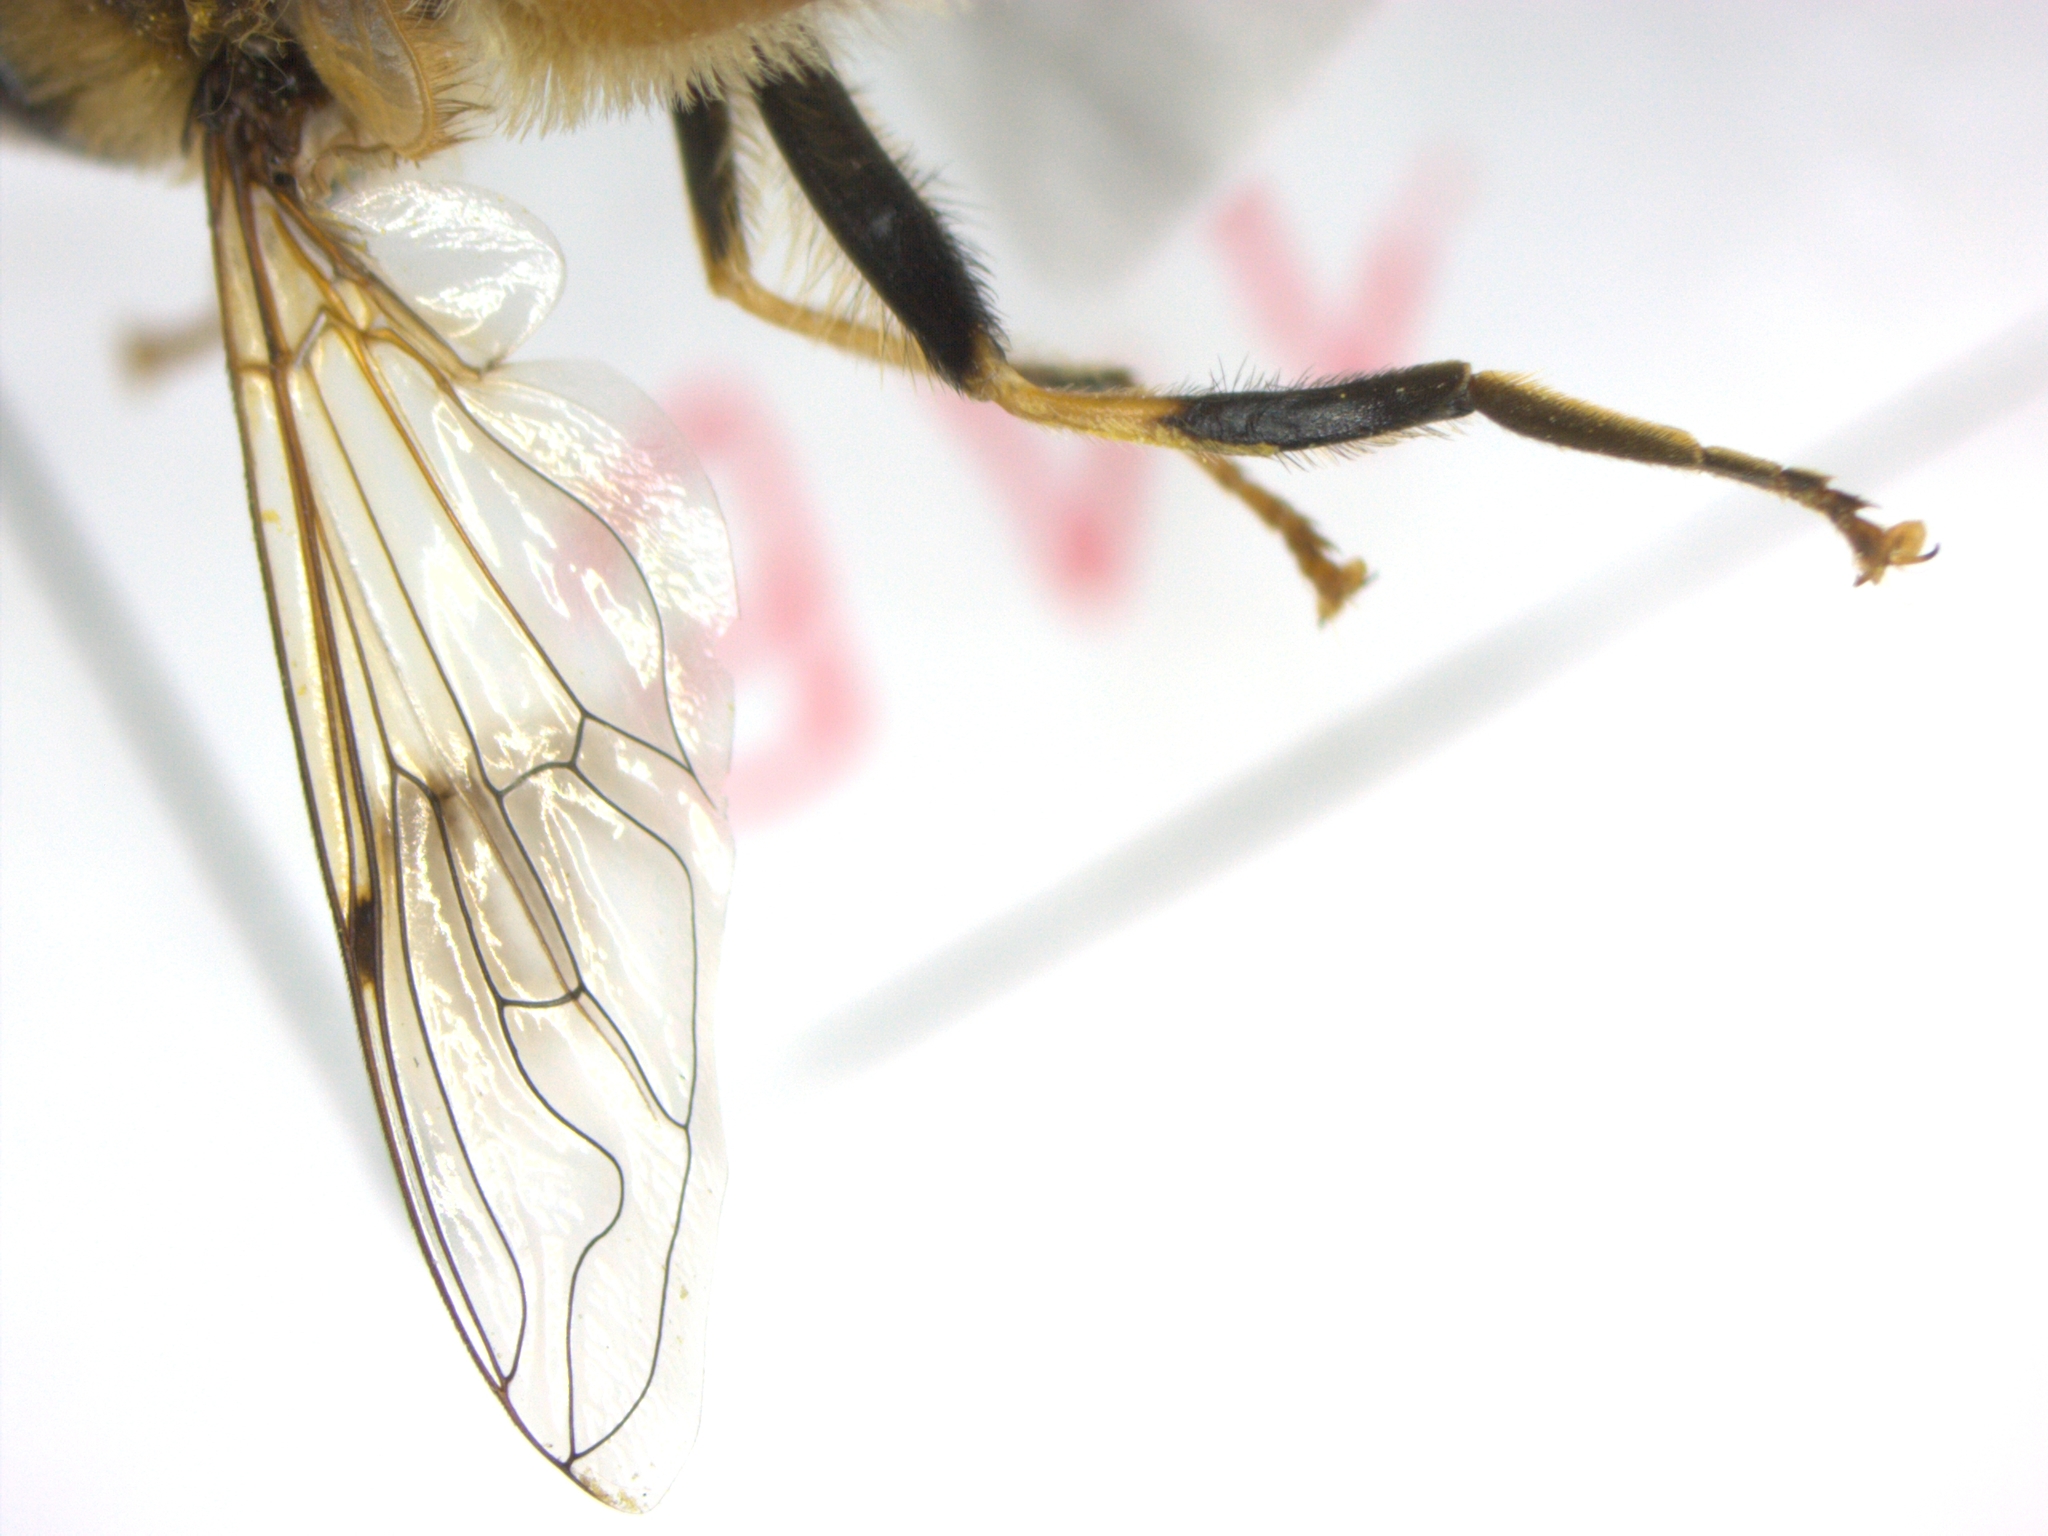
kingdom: Animalia
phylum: Arthropoda
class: Insecta
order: Diptera
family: Syrphidae
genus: Eristalis
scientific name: Eristalis pertinax
